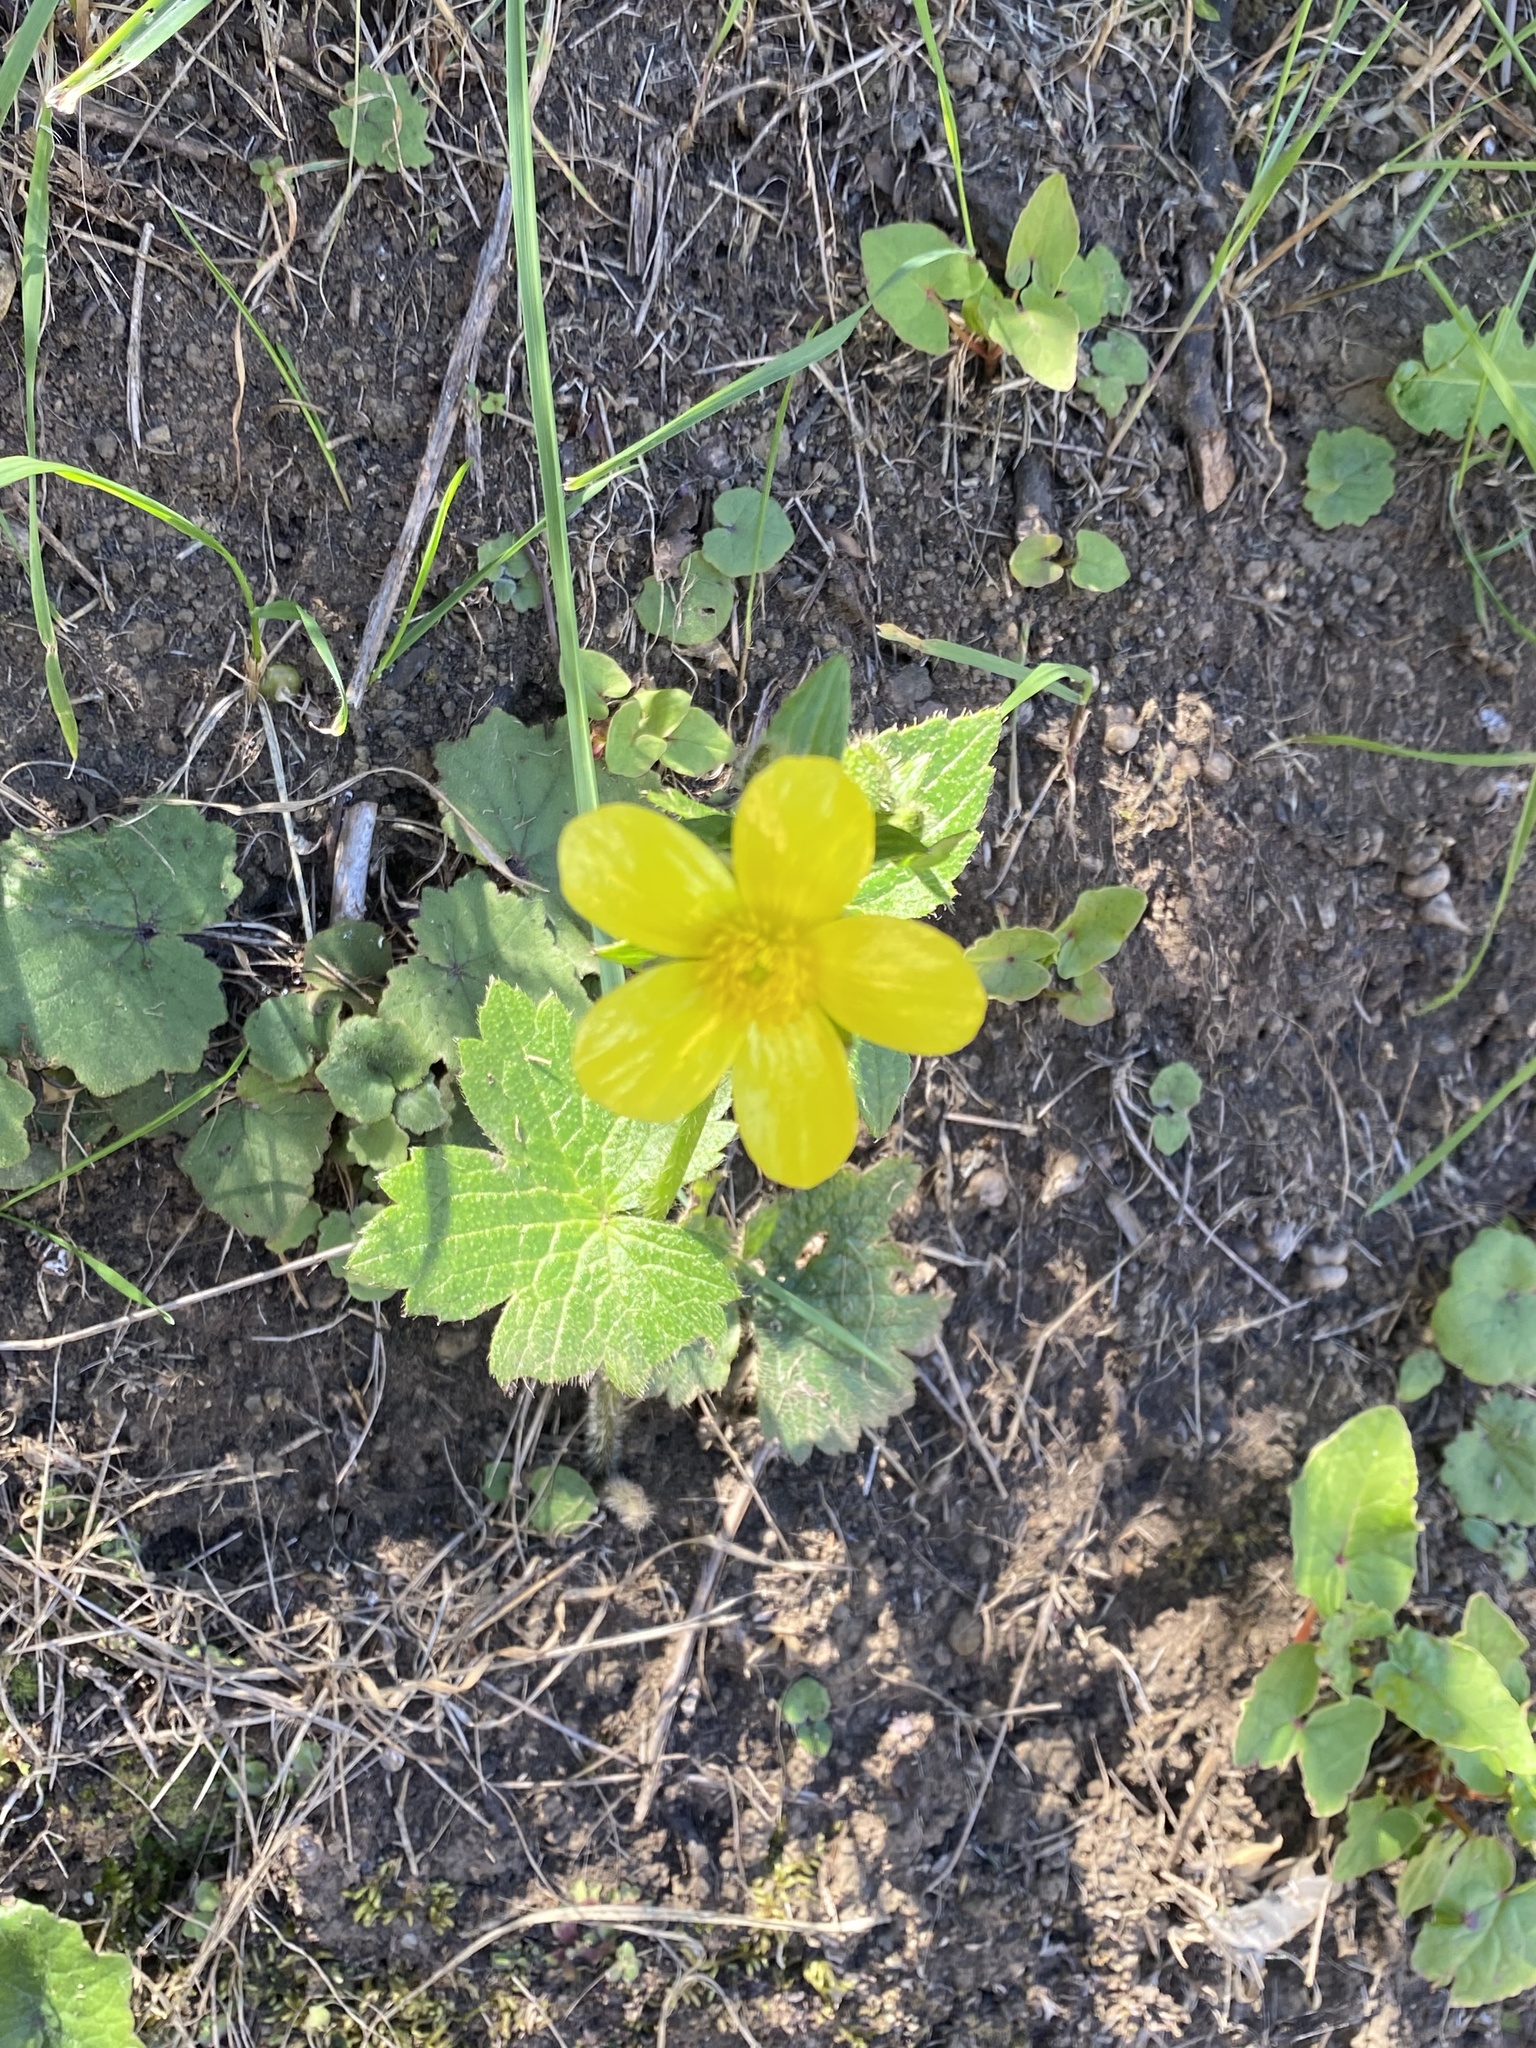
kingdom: Plantae
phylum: Tracheophyta
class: Magnoliopsida
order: Ranunculales
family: Ranunculaceae
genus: Ranunculus
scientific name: Ranunculus cortusifolius
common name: Azores buttercup
